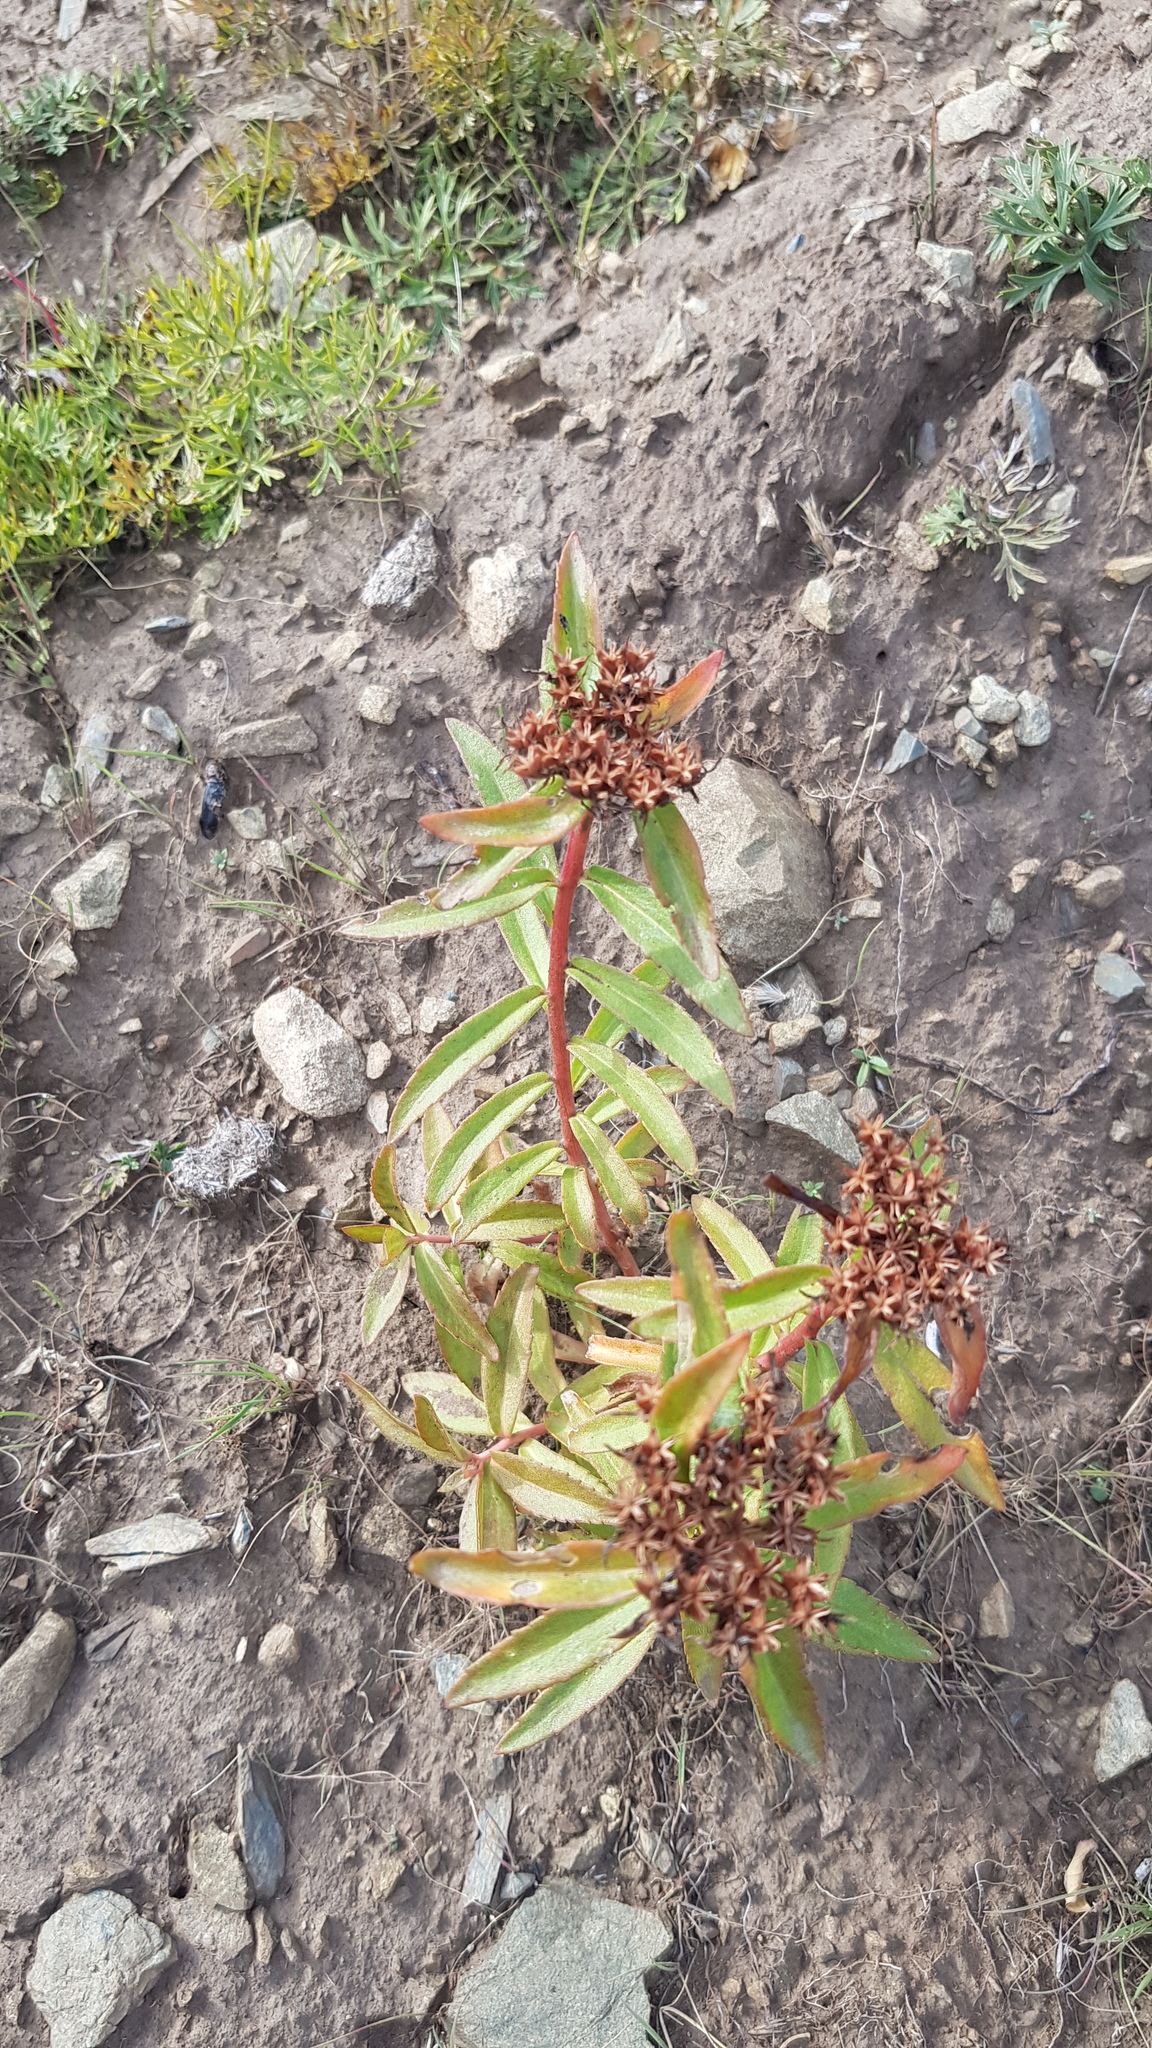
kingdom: Plantae
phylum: Tracheophyta
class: Magnoliopsida
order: Saxifragales
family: Crassulaceae
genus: Phedimus
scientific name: Phedimus aizoon
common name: Orpin aizoon
